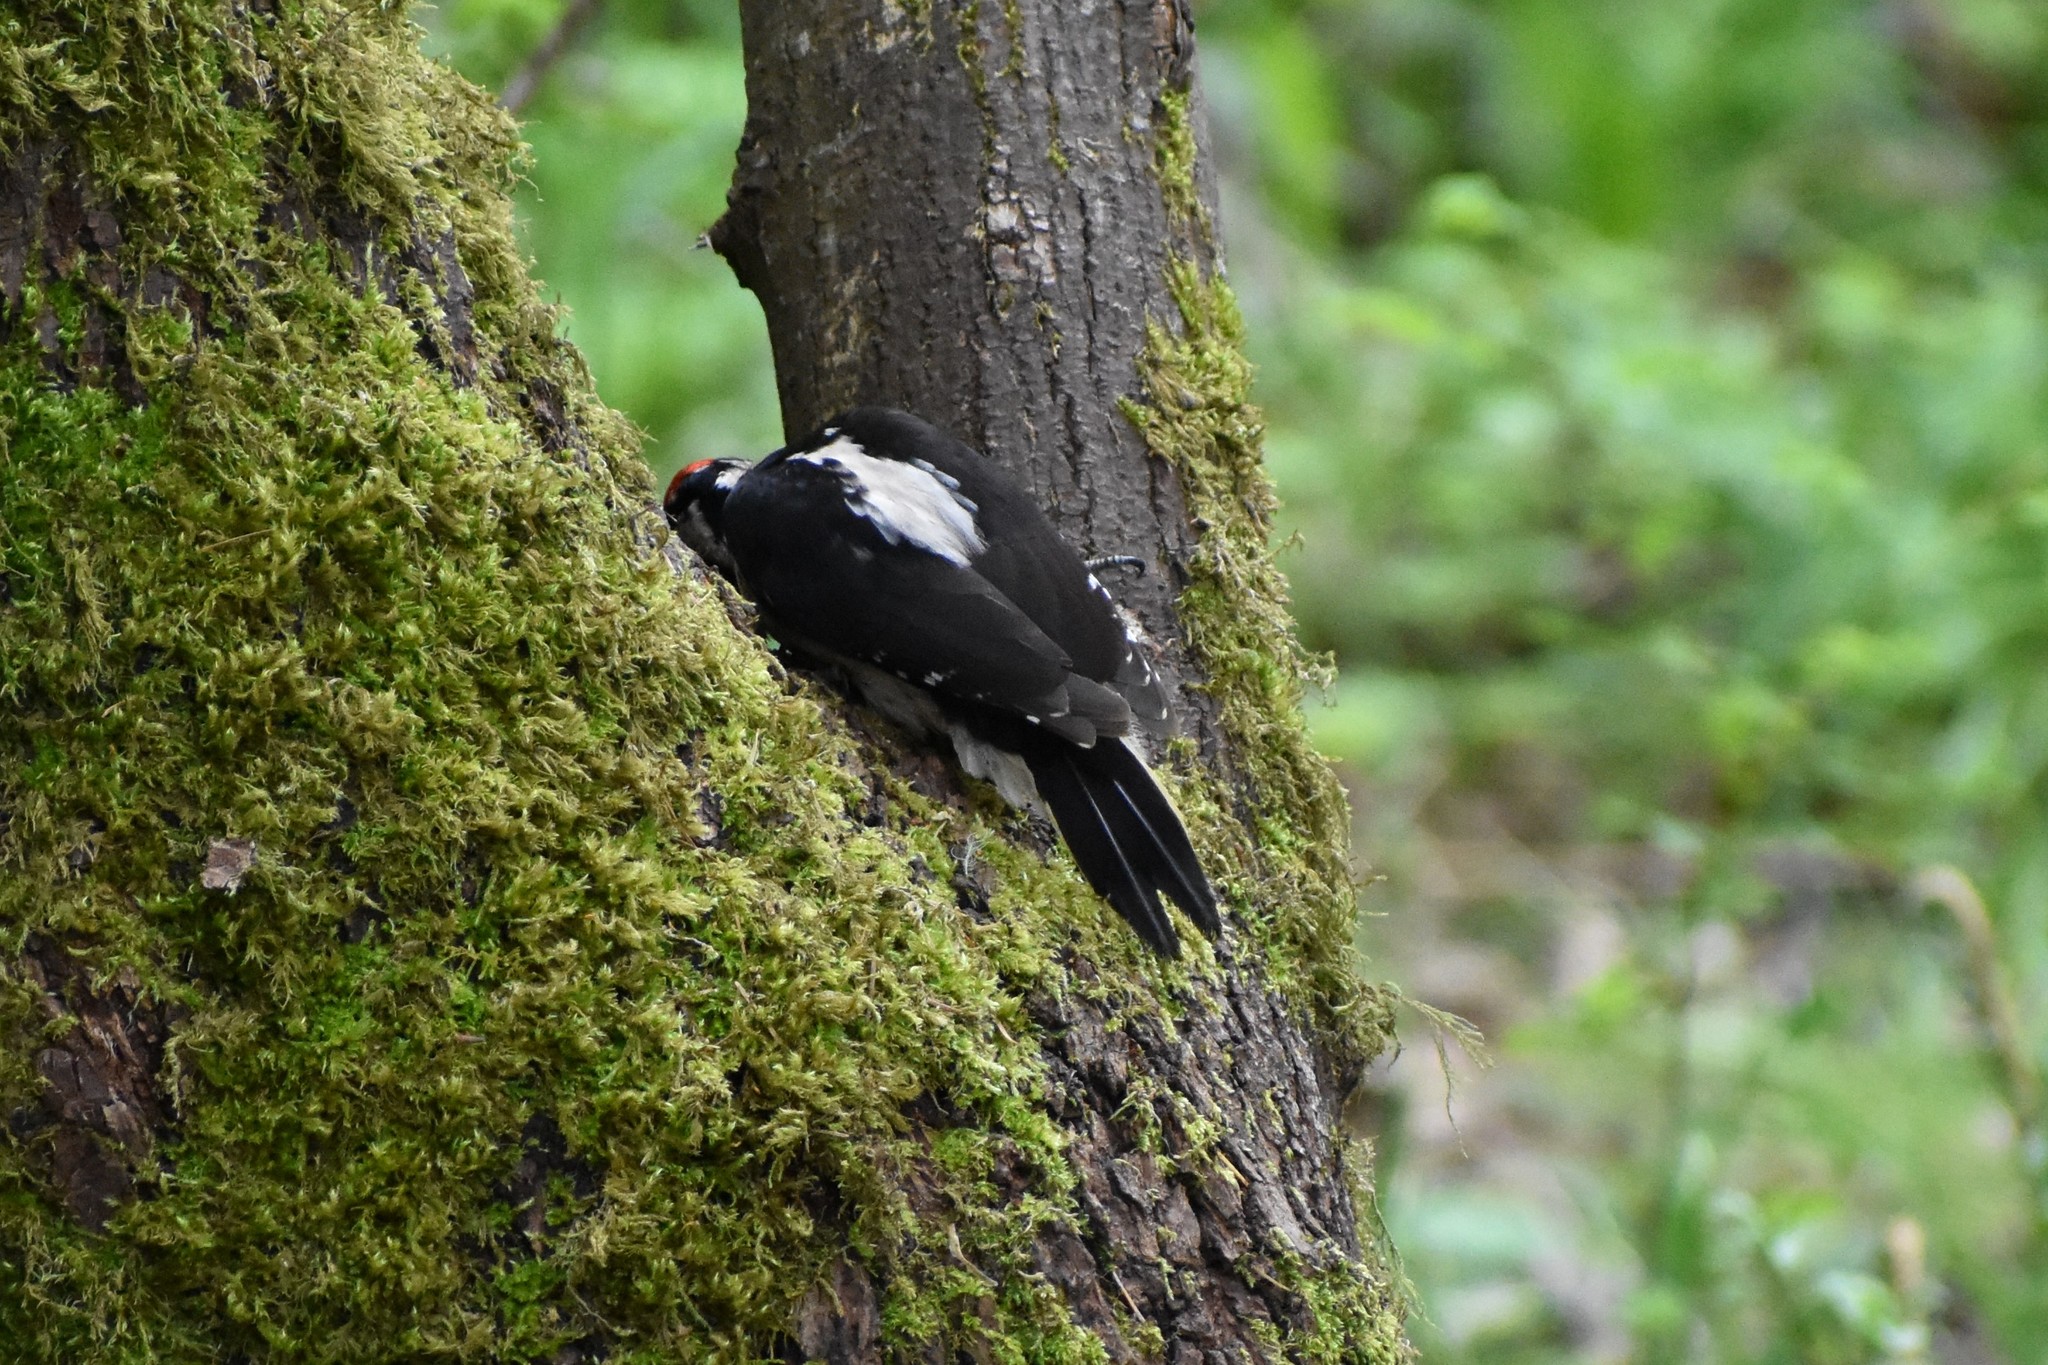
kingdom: Animalia
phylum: Chordata
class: Aves
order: Piciformes
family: Picidae
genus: Leuconotopicus
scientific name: Leuconotopicus villosus
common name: Hairy woodpecker
